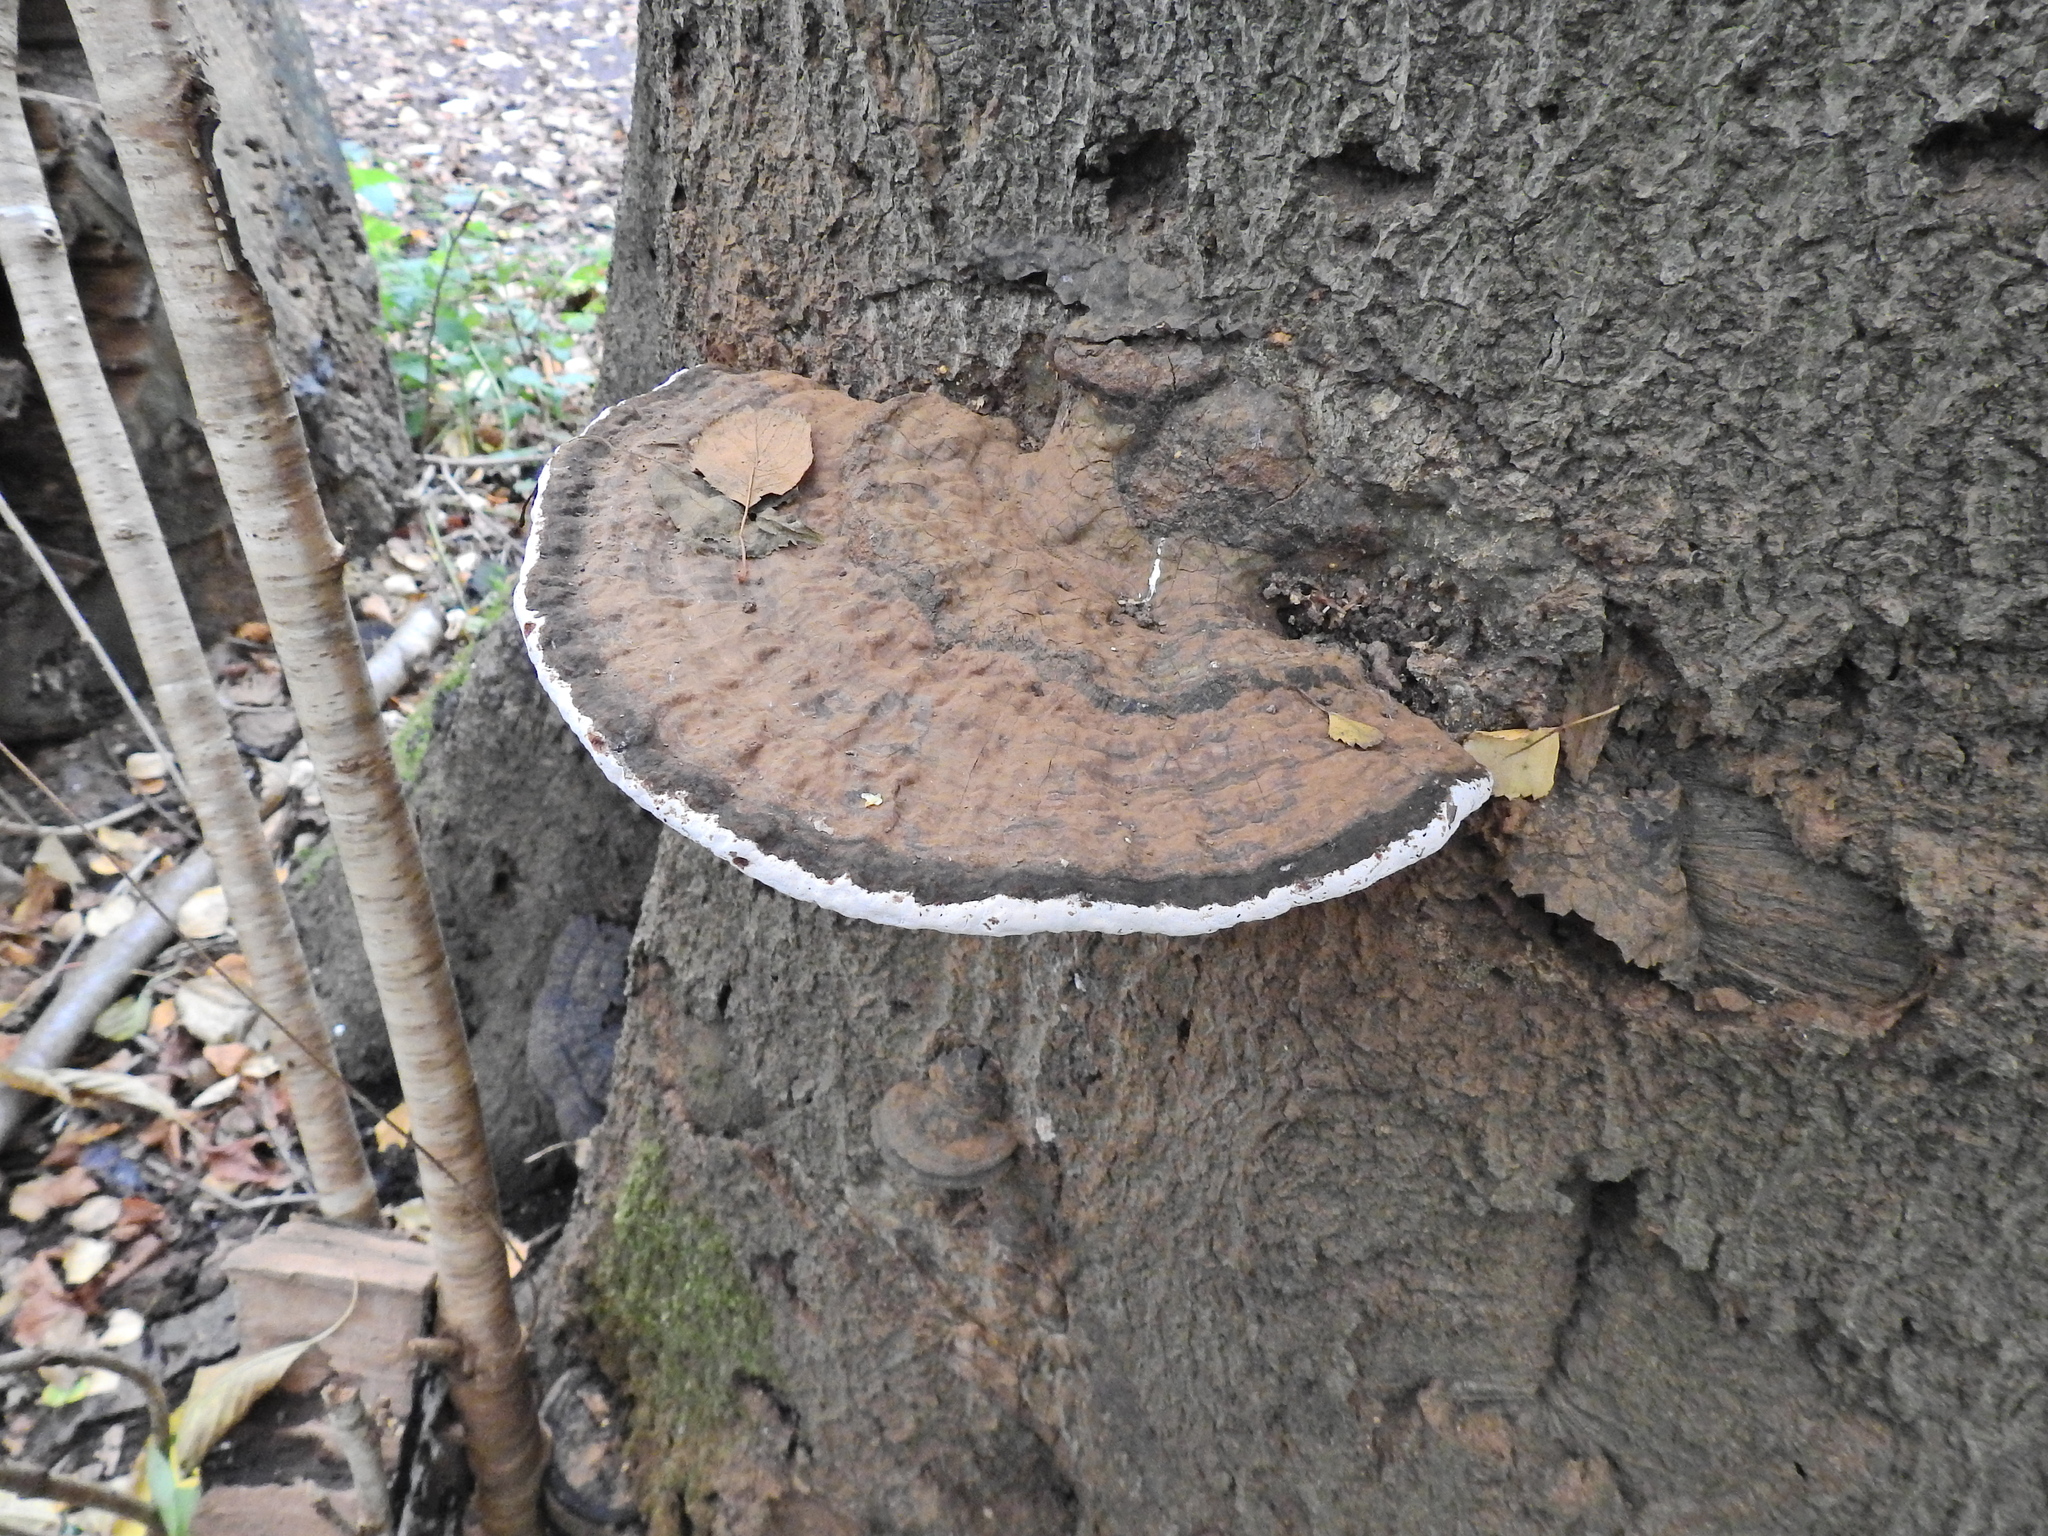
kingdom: Fungi
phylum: Basidiomycota
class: Agaricomycetes
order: Polyporales
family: Polyporaceae
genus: Ganoderma
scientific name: Ganoderma applanatum
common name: Artist's bracket
